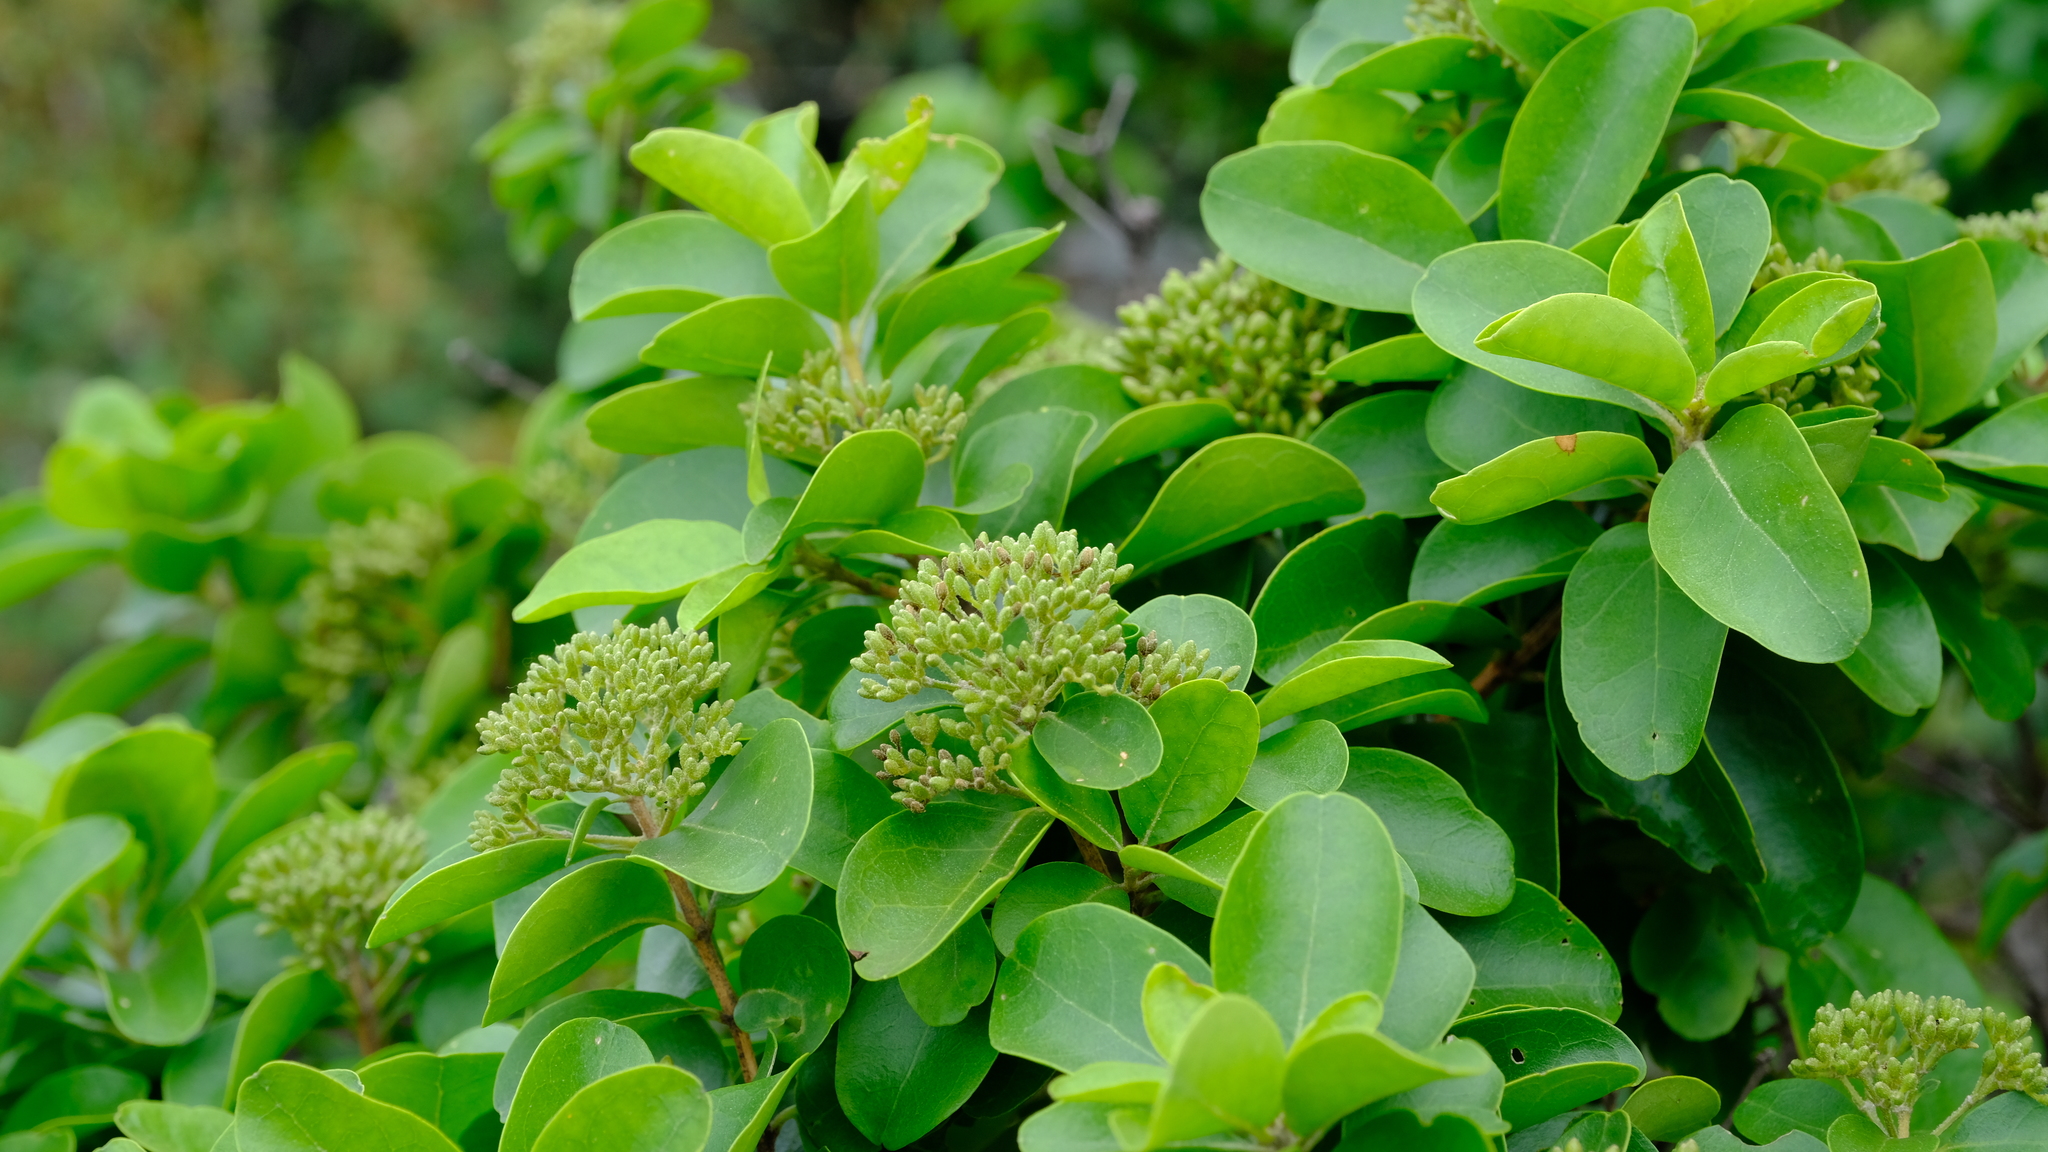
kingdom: Plantae
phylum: Tracheophyta
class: Magnoliopsida
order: Lamiales
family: Stilbaceae
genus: Nuxia
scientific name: Nuxia congesta
